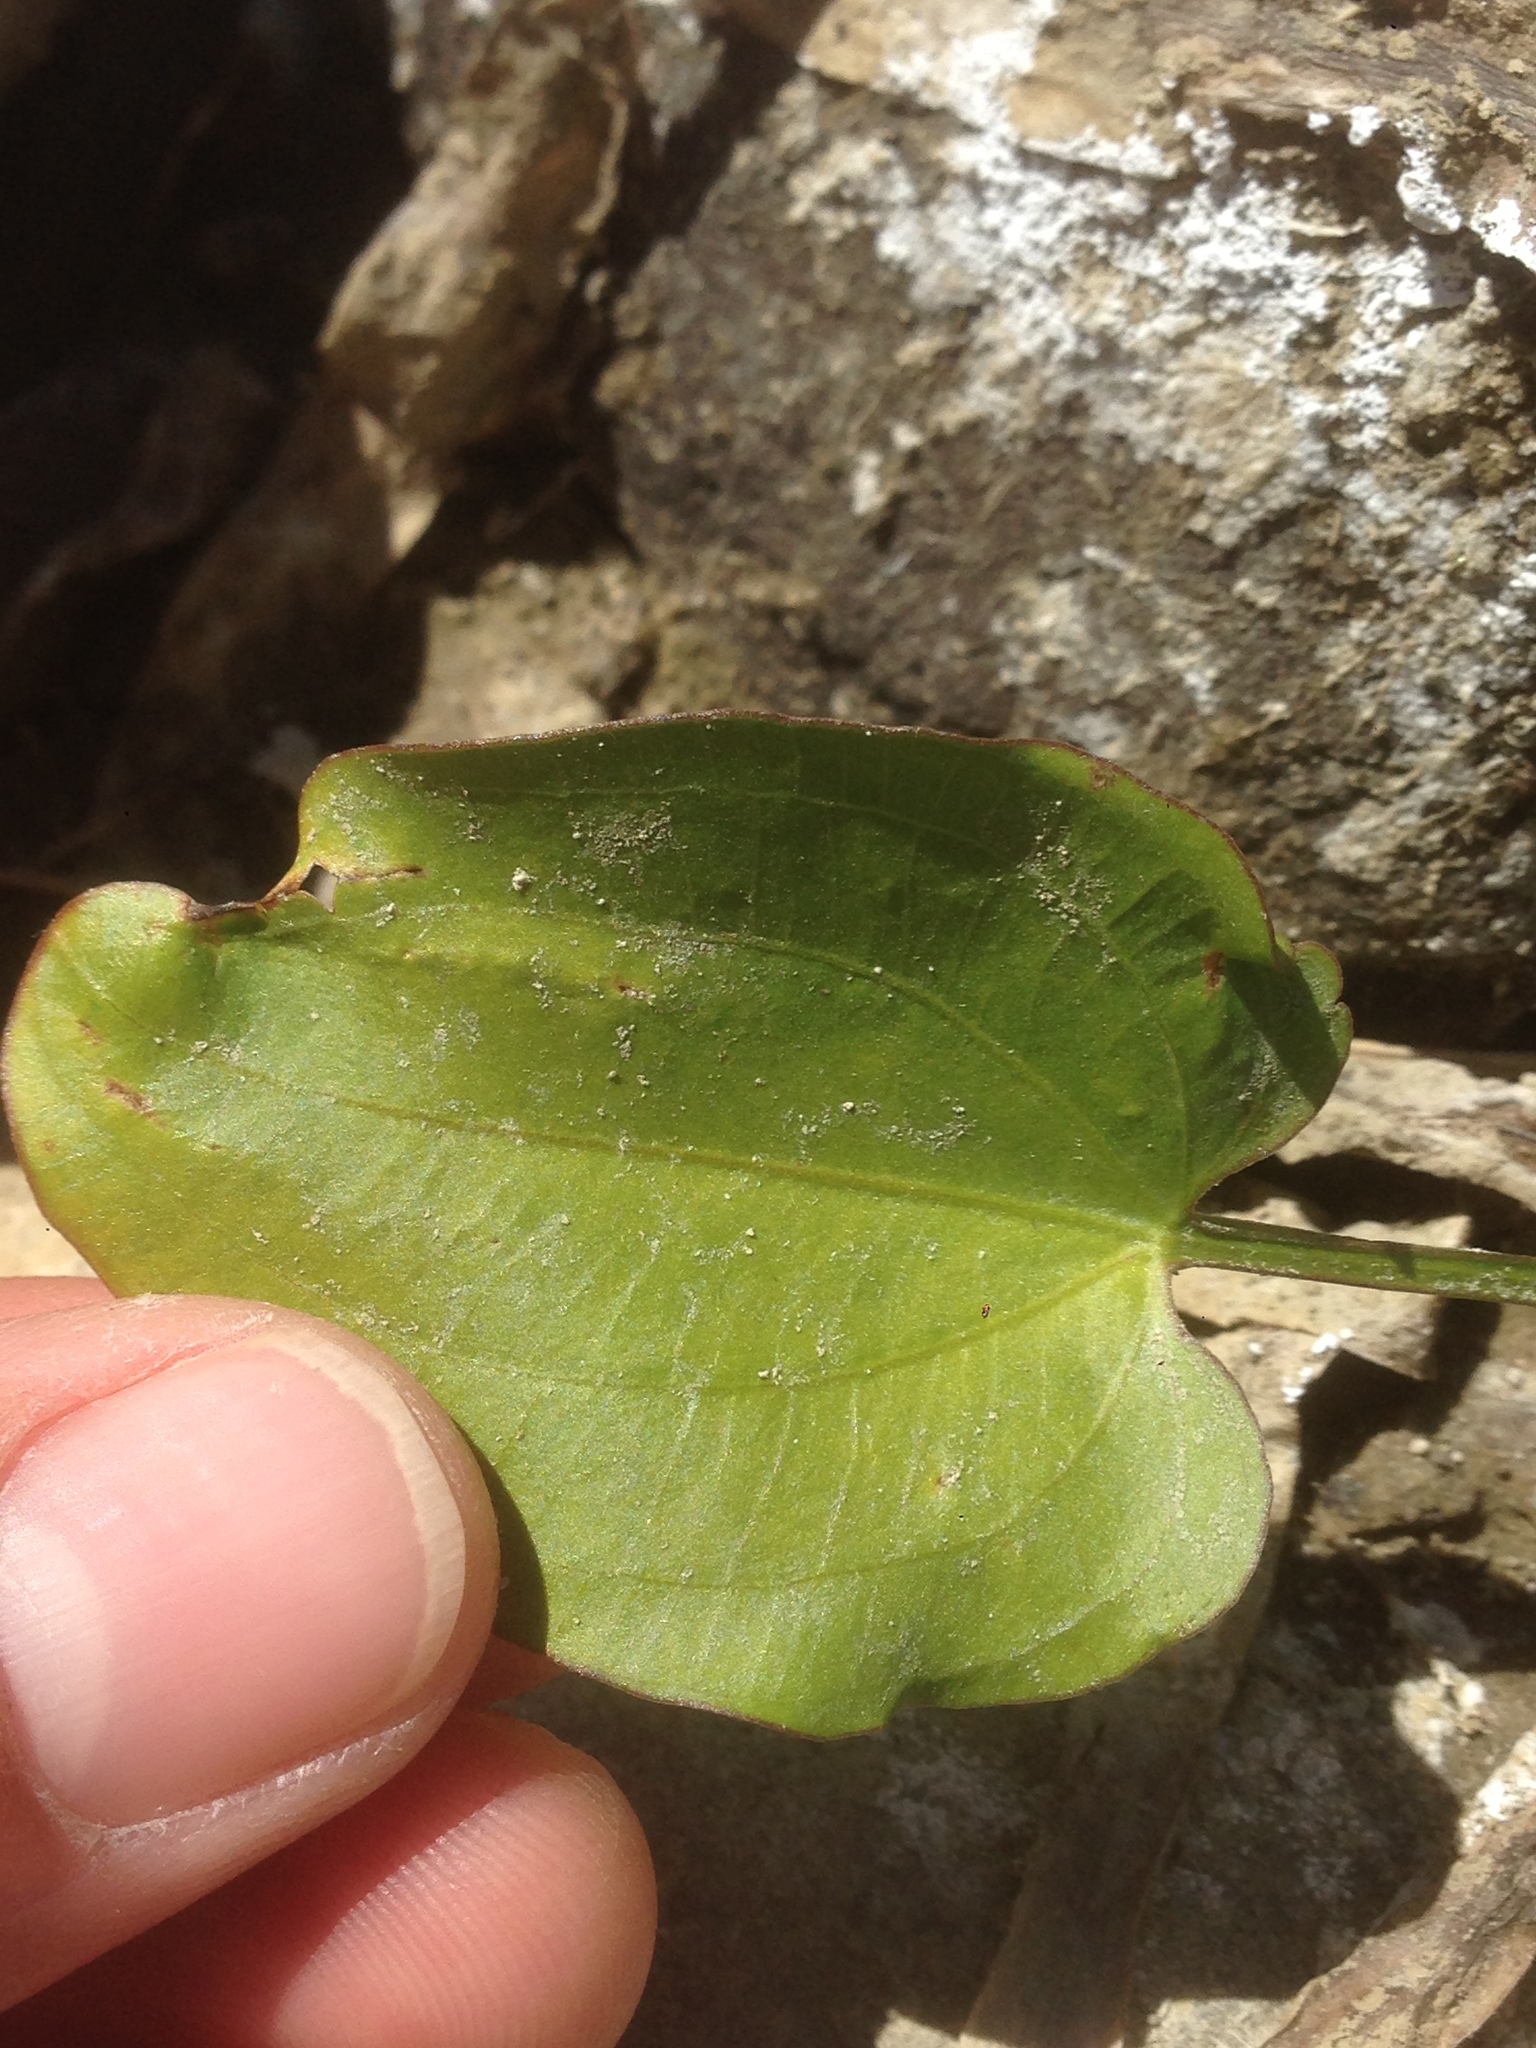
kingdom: Plantae
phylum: Tracheophyta
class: Liliopsida
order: Alismatales
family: Alismataceae
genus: Echinodorus
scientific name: Echinodorus berteroi
